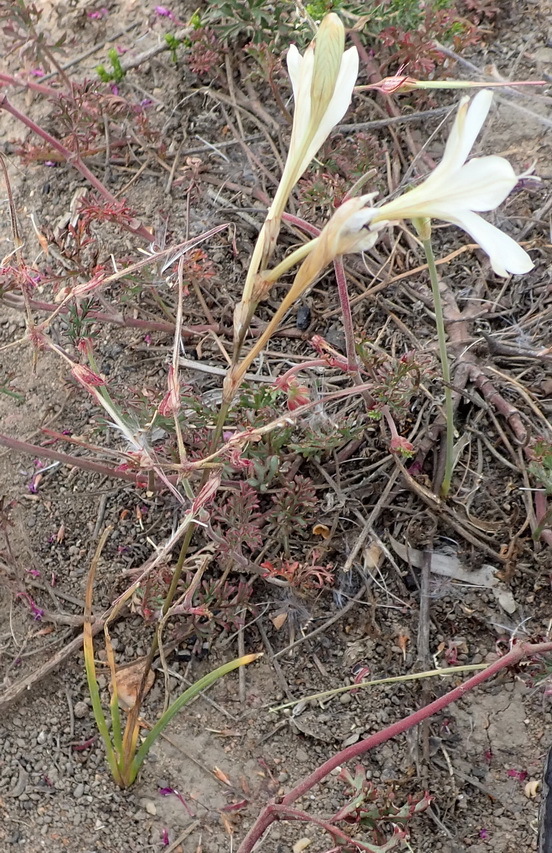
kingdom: Plantae
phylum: Tracheophyta
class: Liliopsida
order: Asparagales
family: Iridaceae
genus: Tritonia
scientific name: Tritonia bakeri
